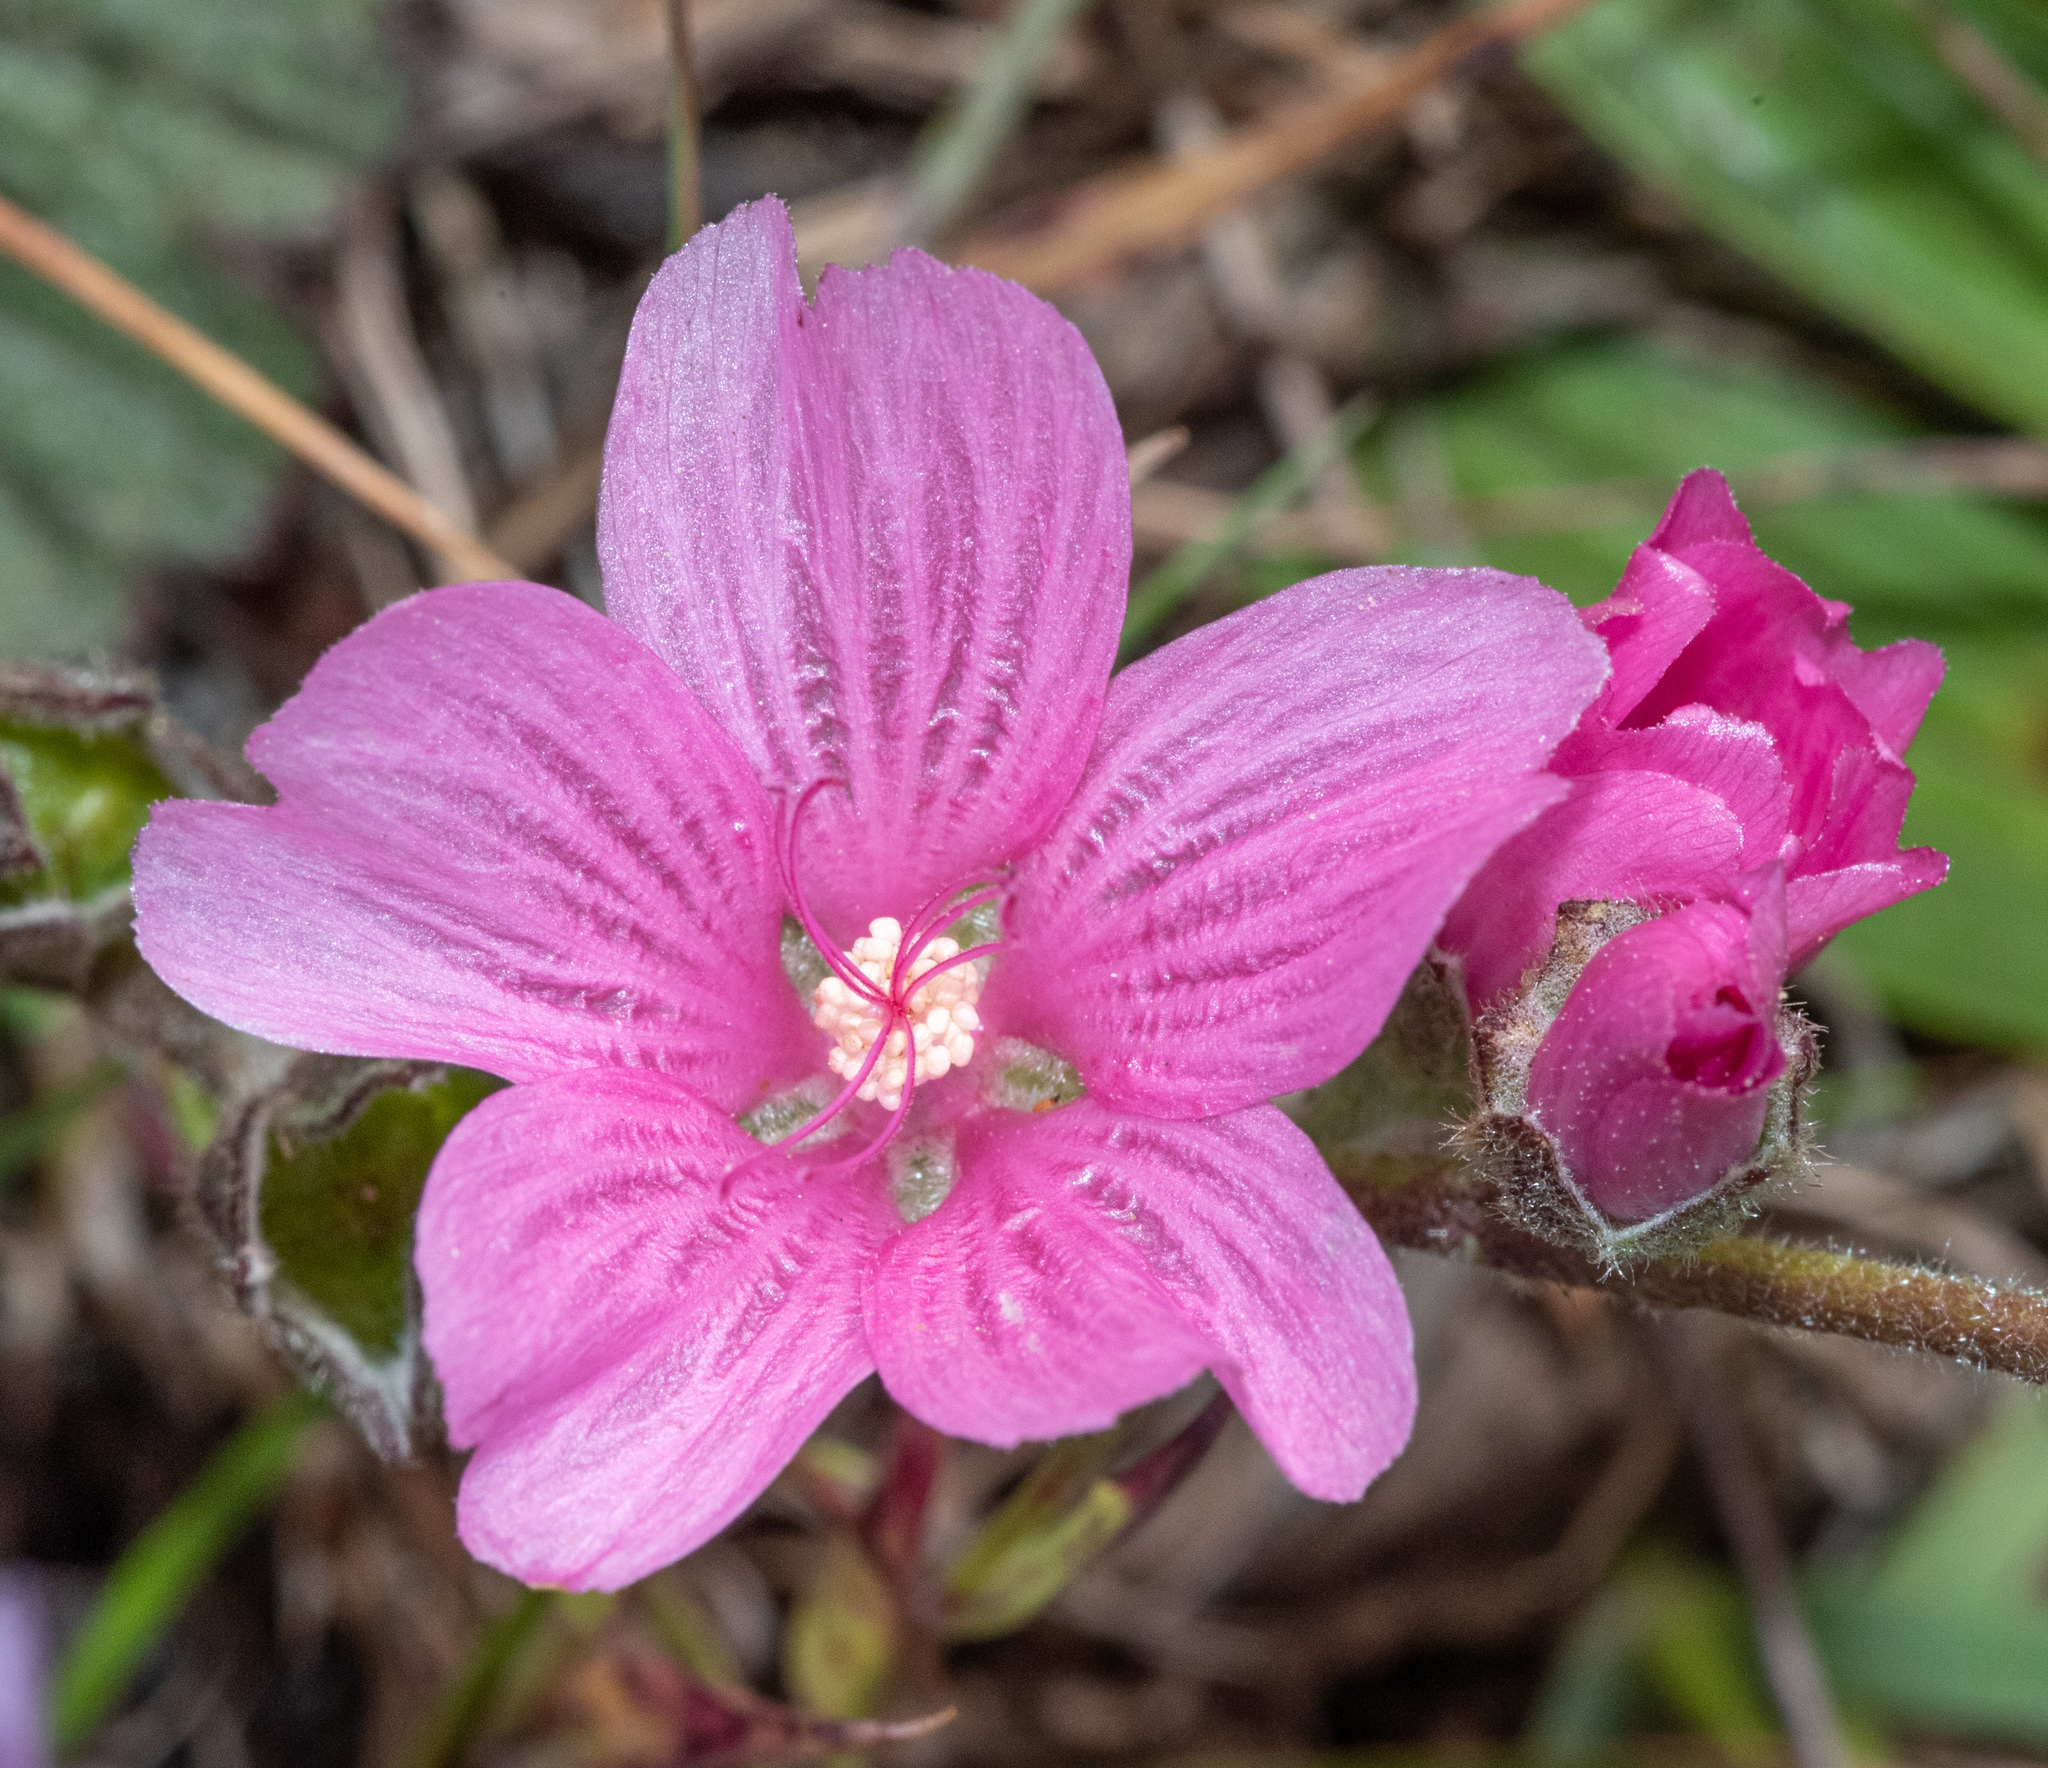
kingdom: Plantae
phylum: Tracheophyta
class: Magnoliopsida
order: Malvales
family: Malvaceae
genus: Sidalcea
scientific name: Sidalcea malviflora
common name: Greek mallow
